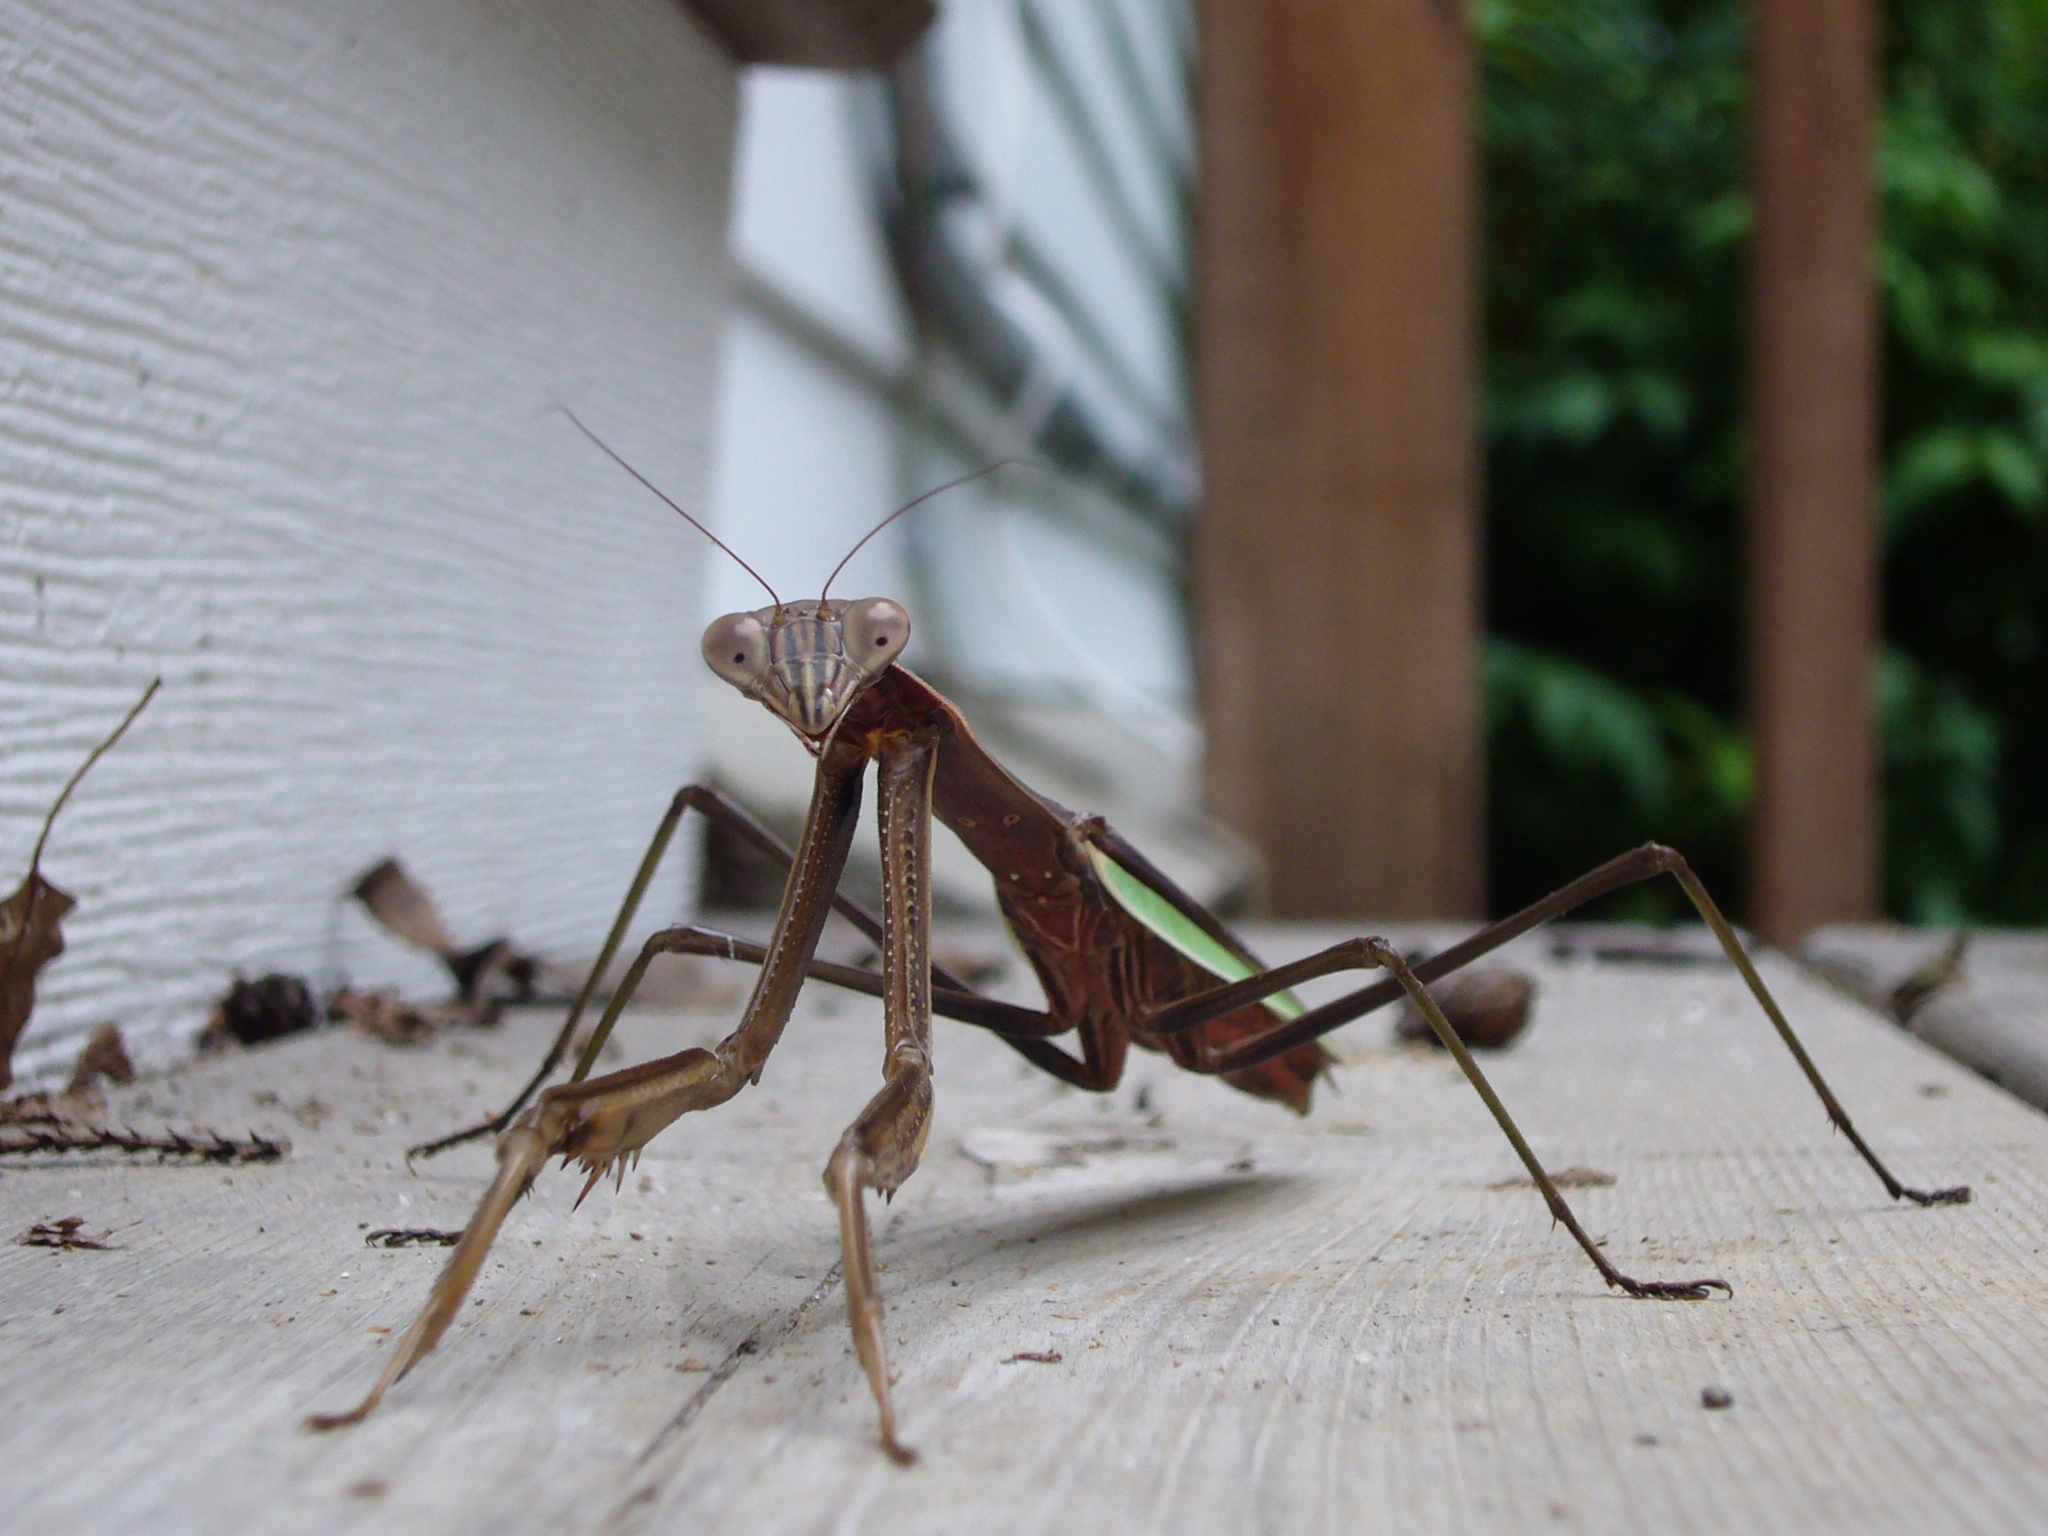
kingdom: Animalia
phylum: Arthropoda
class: Insecta
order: Mantodea
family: Mantidae
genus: Tenodera
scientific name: Tenodera sinensis
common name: Chinese mantis
